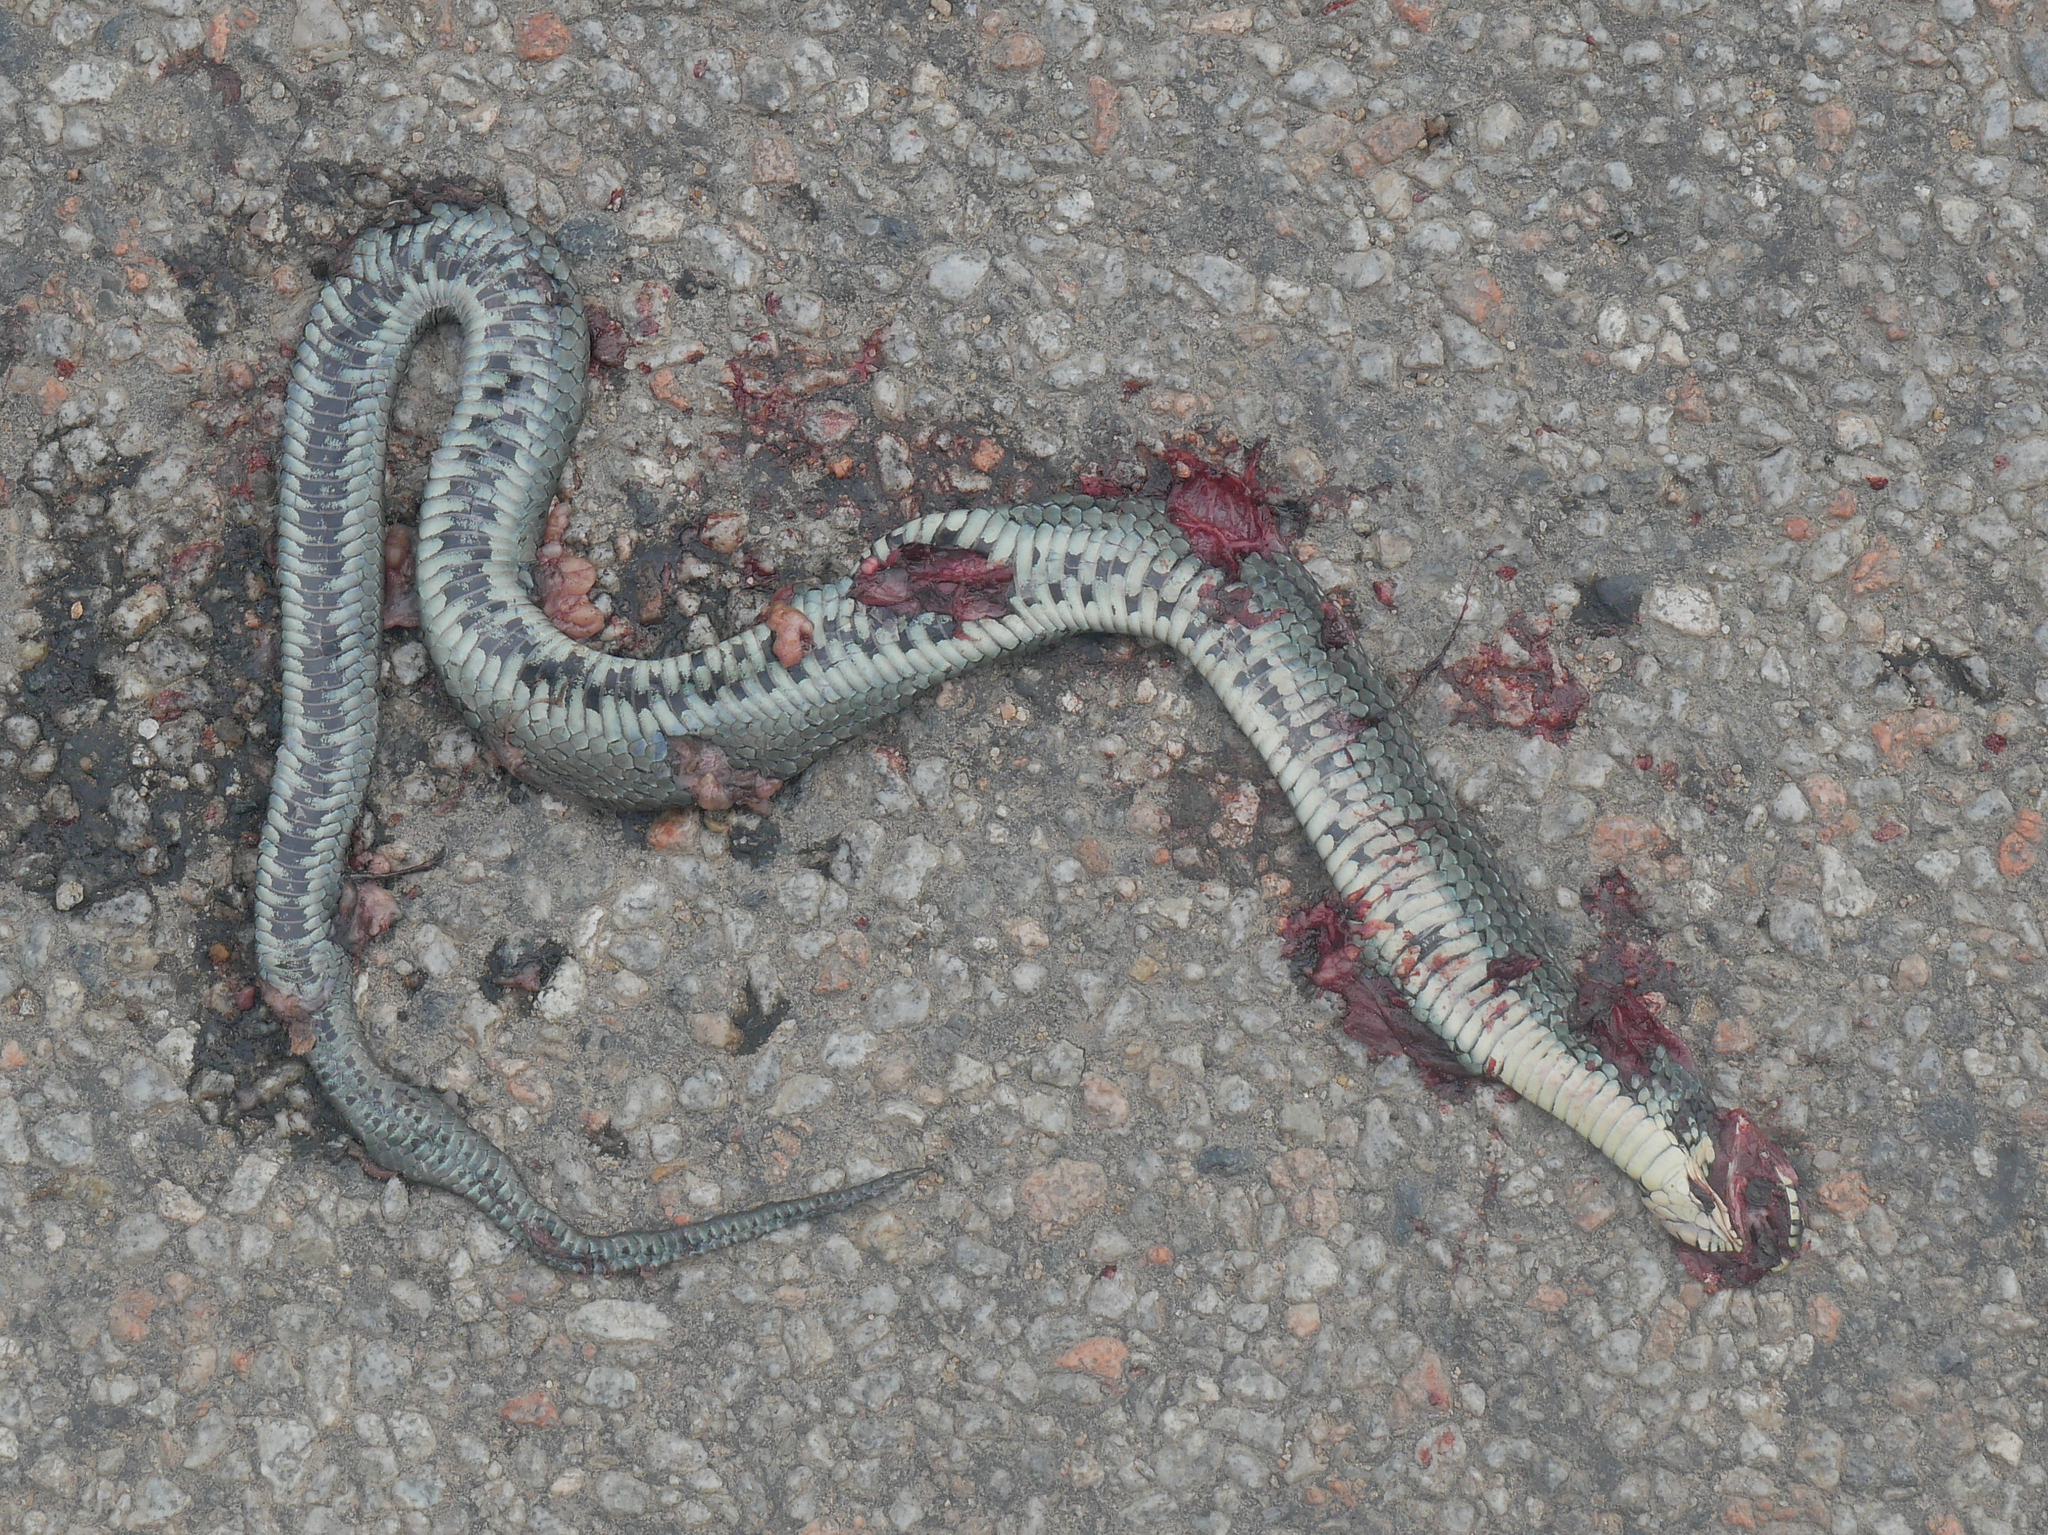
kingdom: Animalia
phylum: Chordata
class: Squamata
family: Colubridae
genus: Natrix
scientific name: Natrix natrix
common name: Grass snake
